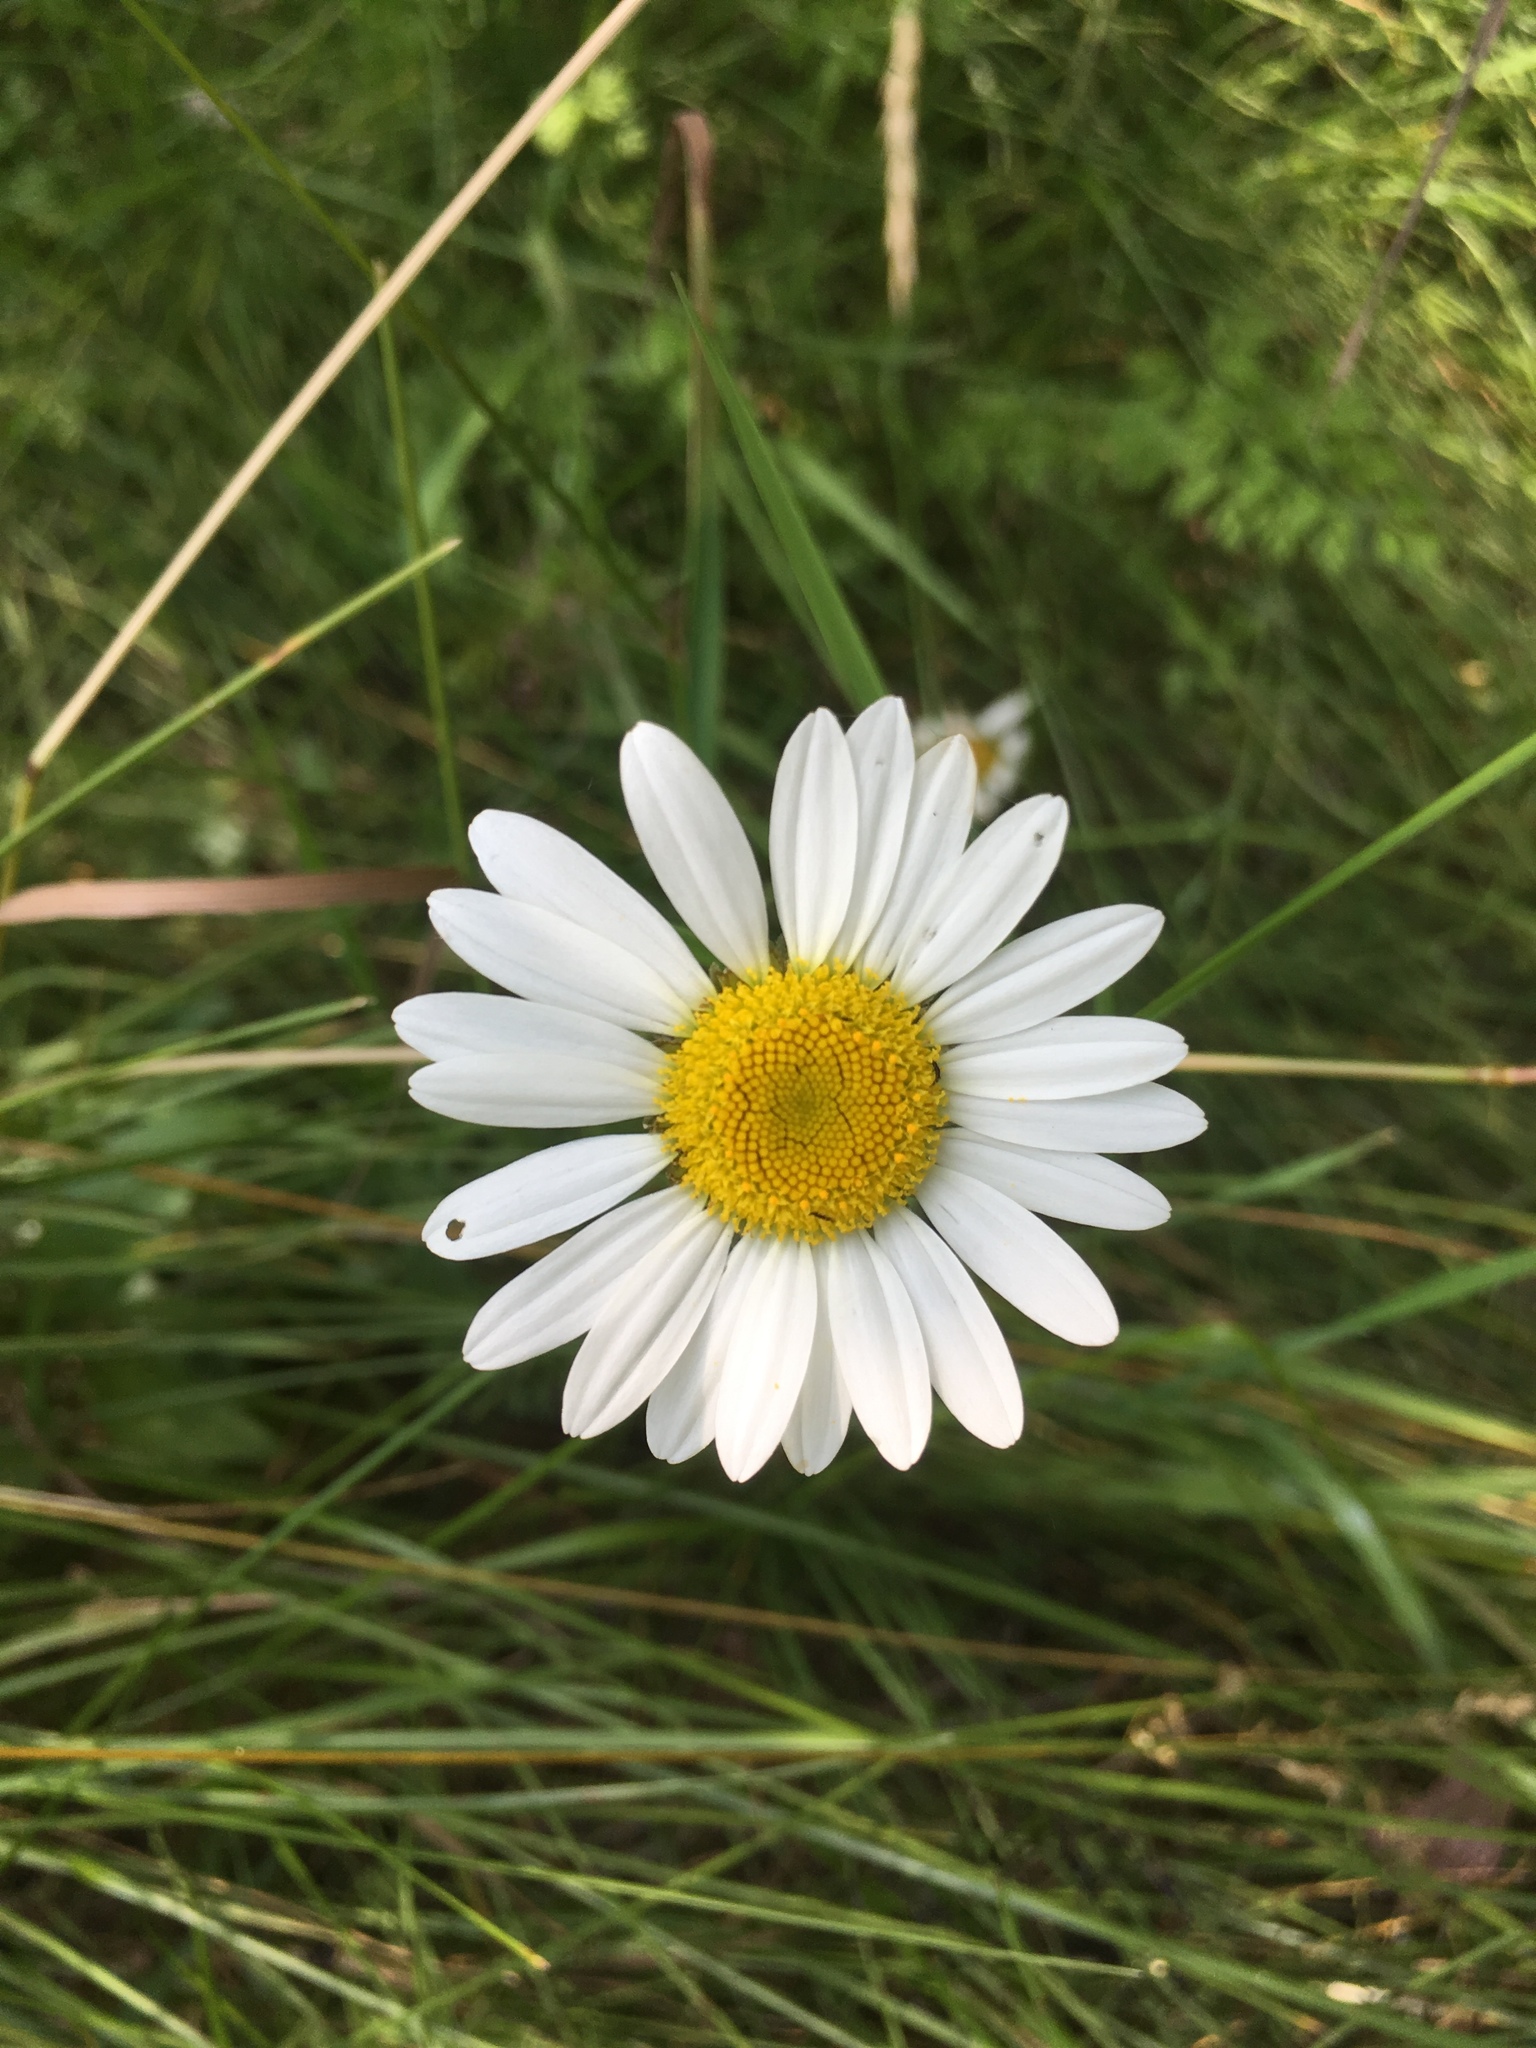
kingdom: Plantae
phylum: Tracheophyta
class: Magnoliopsida
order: Asterales
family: Asteraceae
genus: Leucanthemum
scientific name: Leucanthemum vulgare
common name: Oxeye daisy
